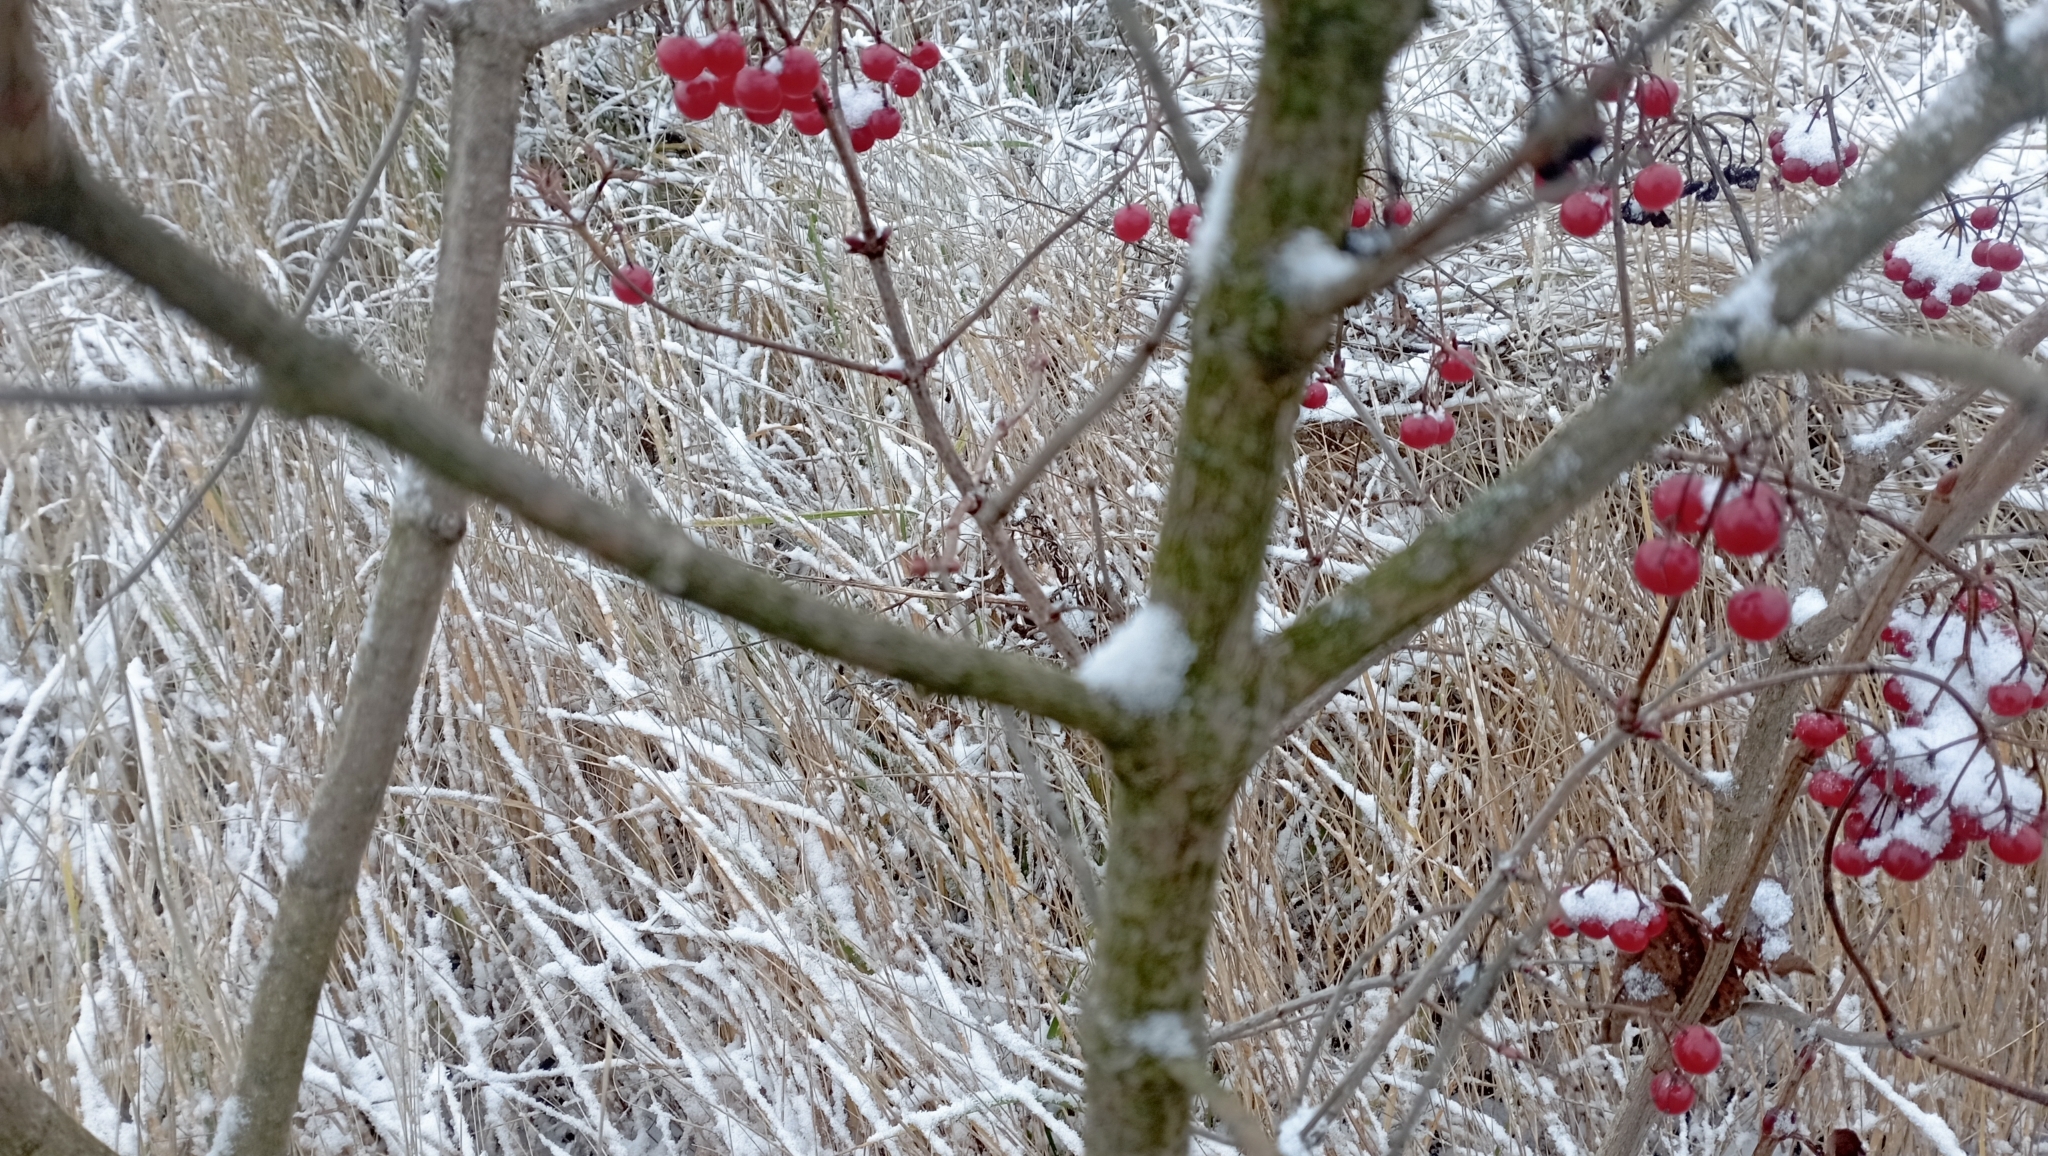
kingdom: Plantae
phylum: Tracheophyta
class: Magnoliopsida
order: Dipsacales
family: Viburnaceae
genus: Viburnum
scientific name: Viburnum opulus
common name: Guelder-rose
